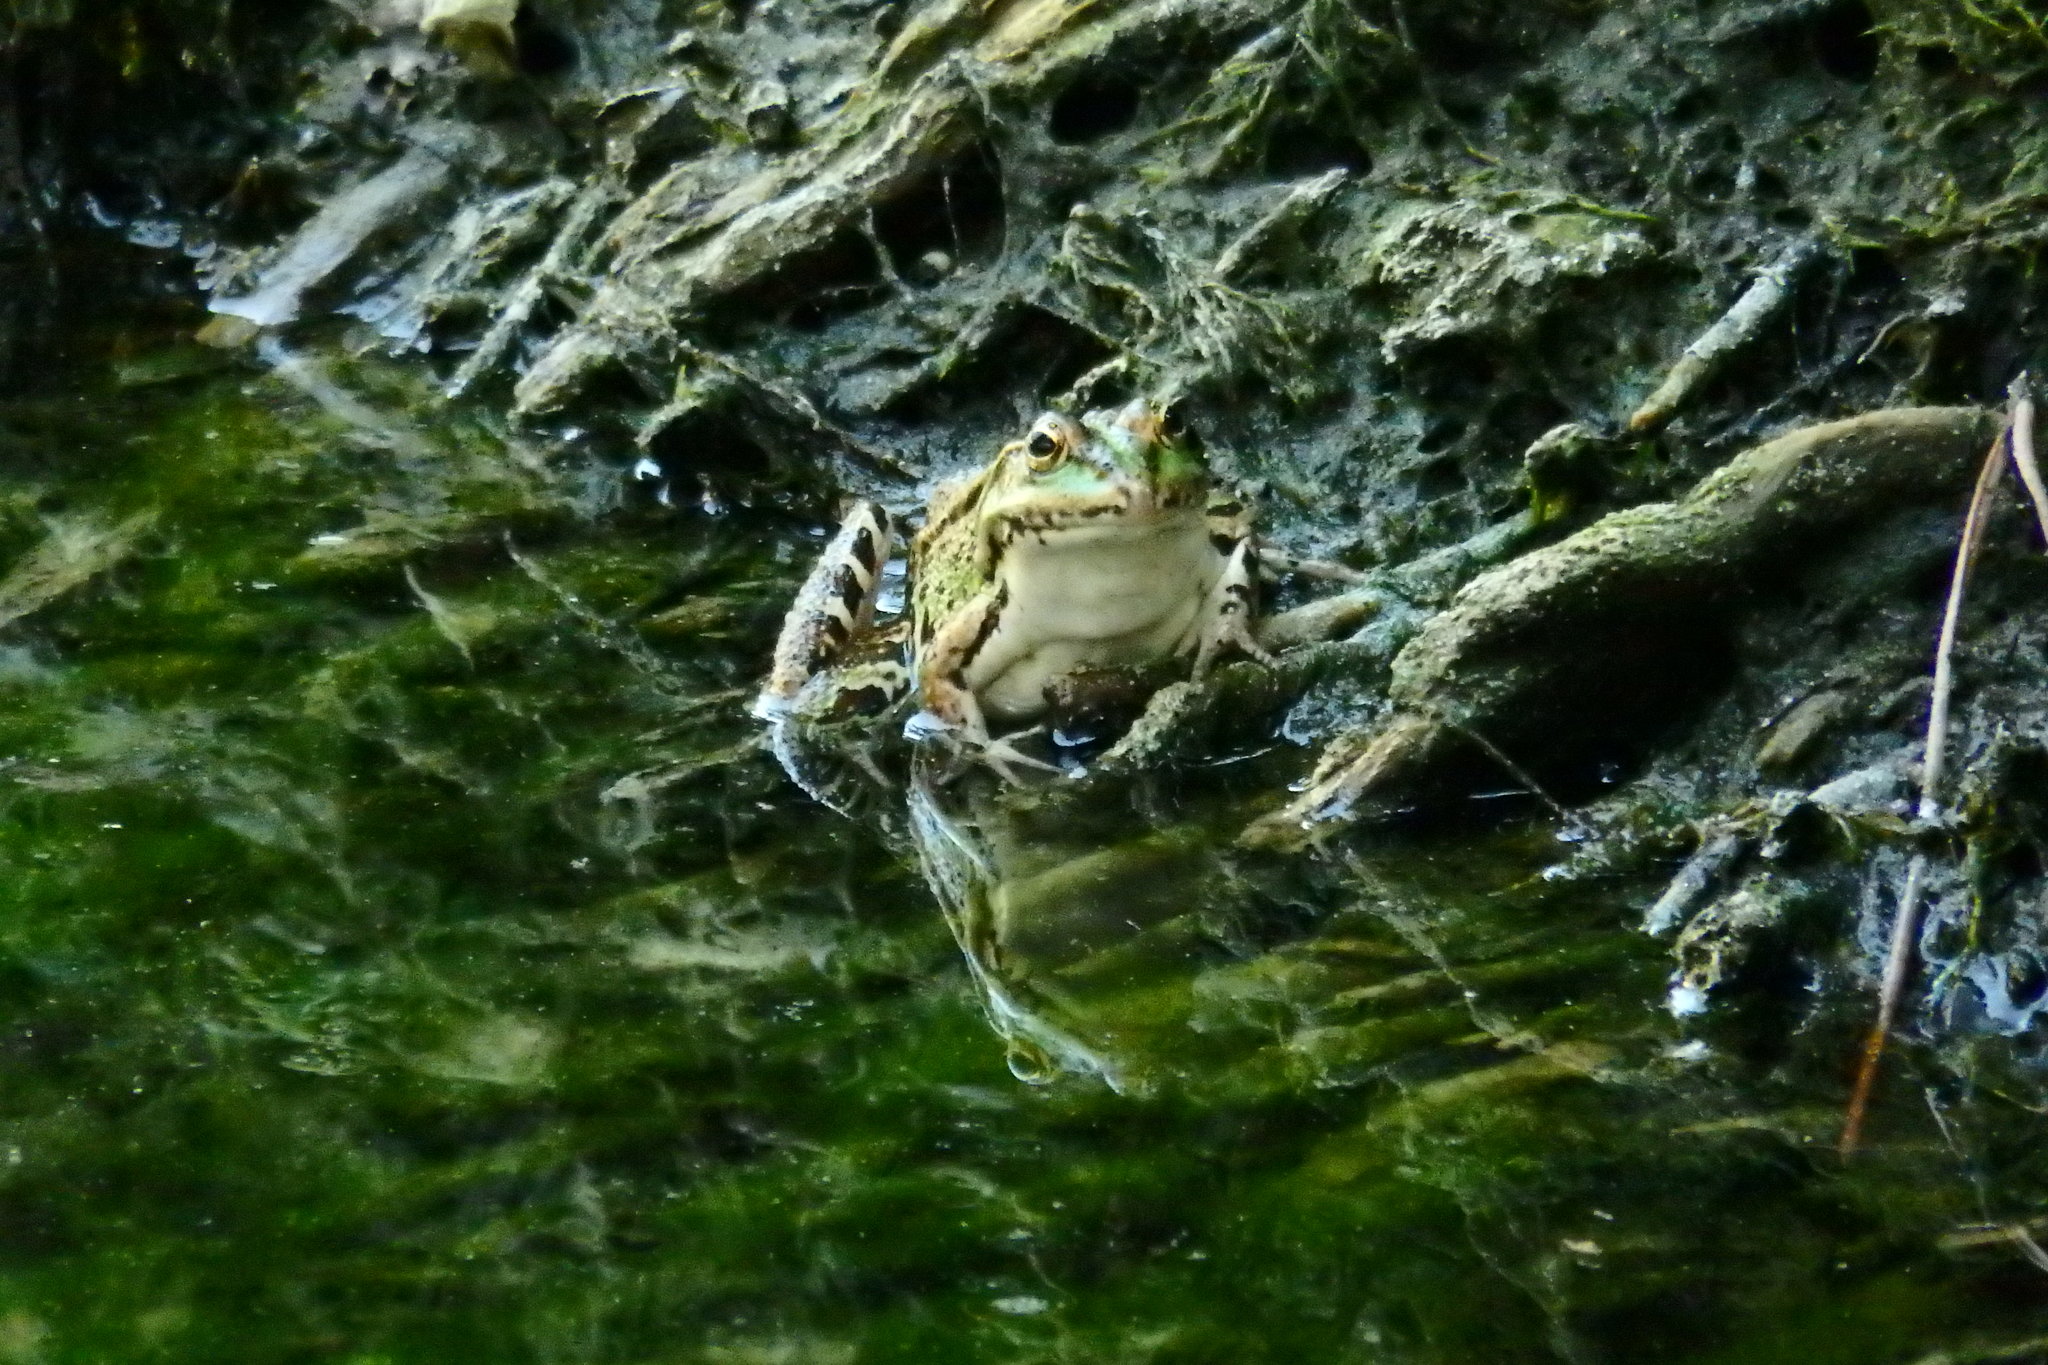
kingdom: Animalia
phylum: Chordata
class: Amphibia
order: Anura
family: Ranidae
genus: Pelophylax
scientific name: Pelophylax perezi
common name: Perez's frog
